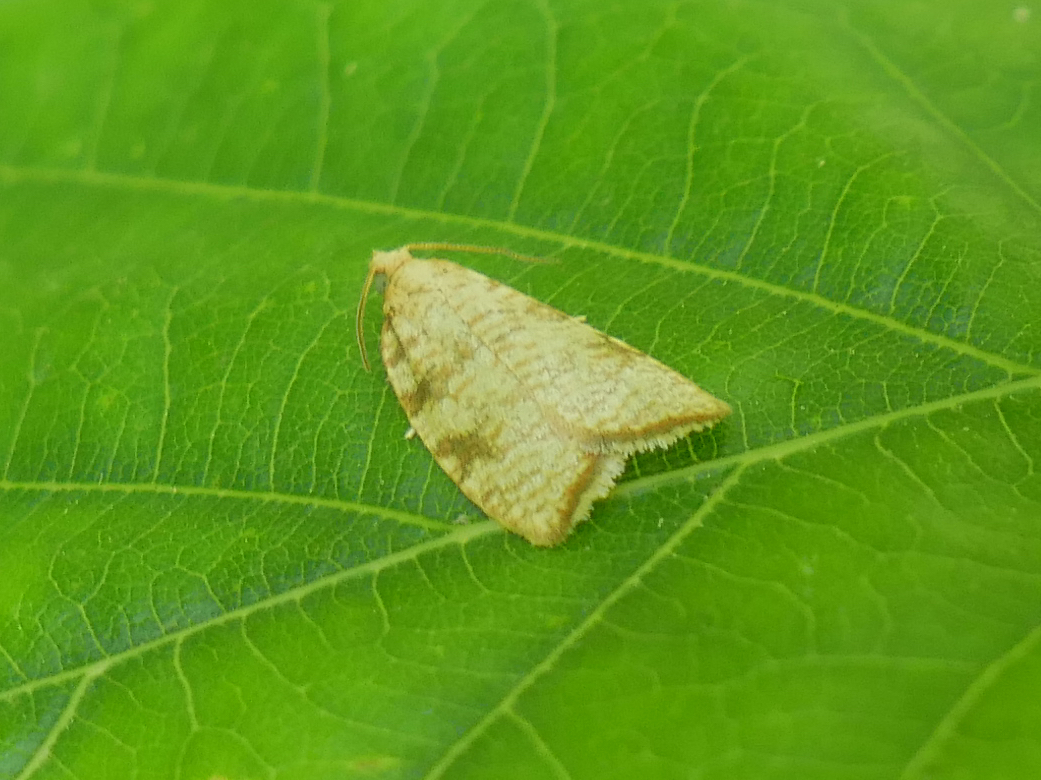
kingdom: Animalia
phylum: Arthropoda
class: Insecta
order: Lepidoptera
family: Tortricidae
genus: Aleimma
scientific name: Aleimma loeflingiana
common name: Yellow oak button
